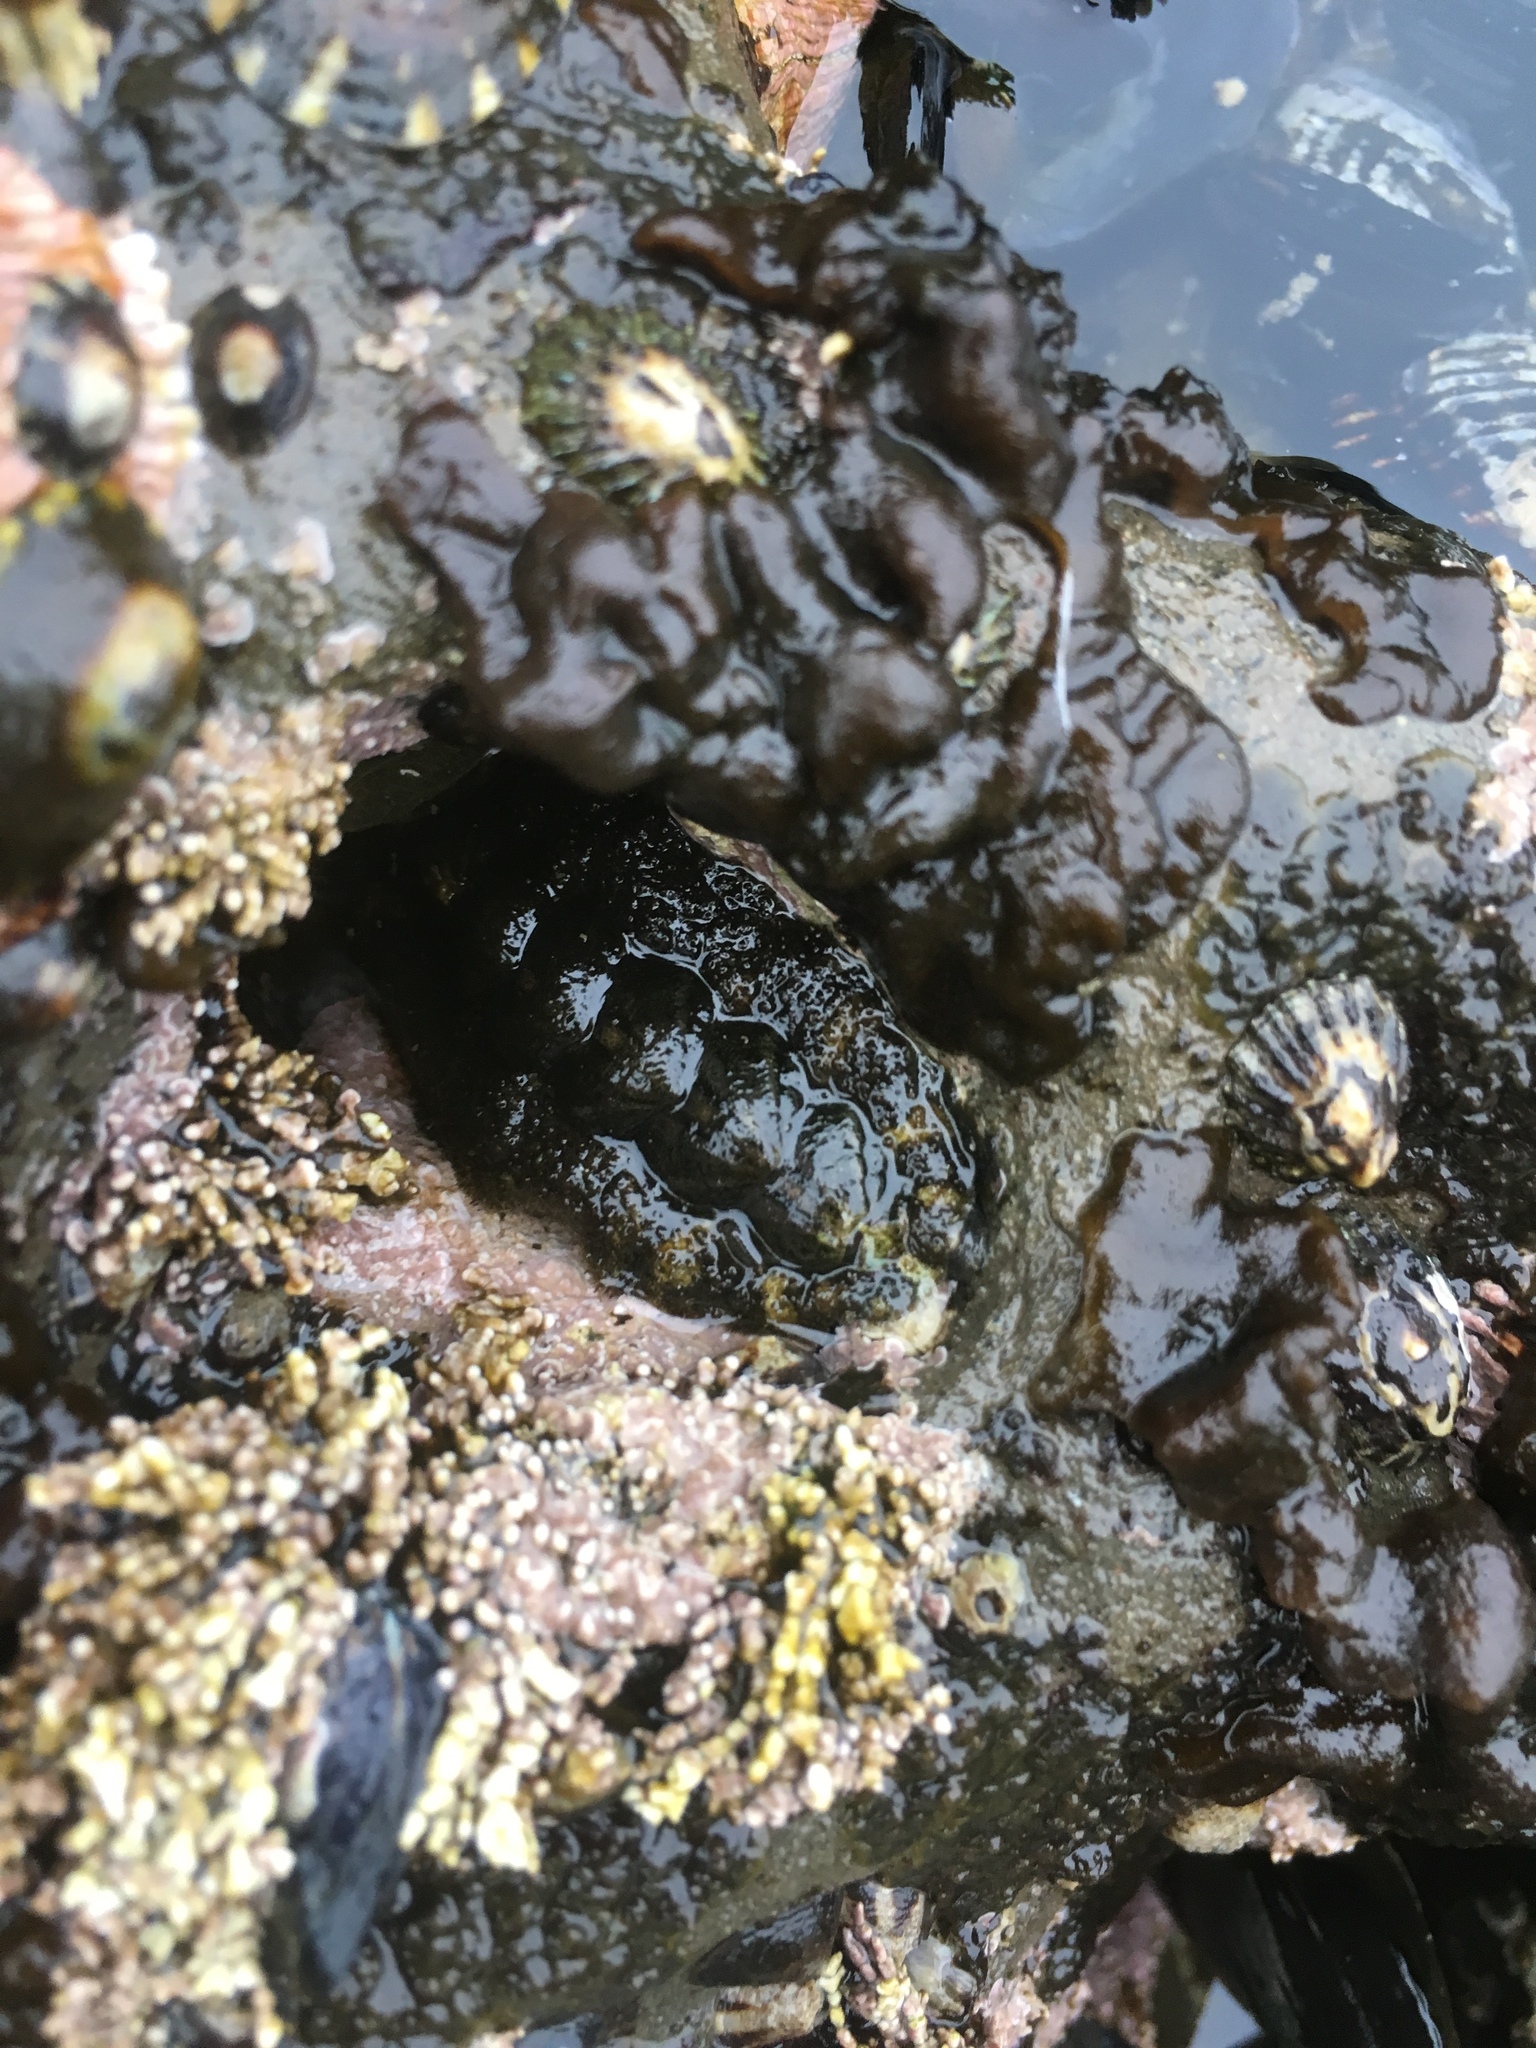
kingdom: Animalia
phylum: Mollusca
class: Polyplacophora
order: Chitonida
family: Tonicellidae
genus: Nuttallina
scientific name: Nuttallina californica
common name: California nuttall chiton
